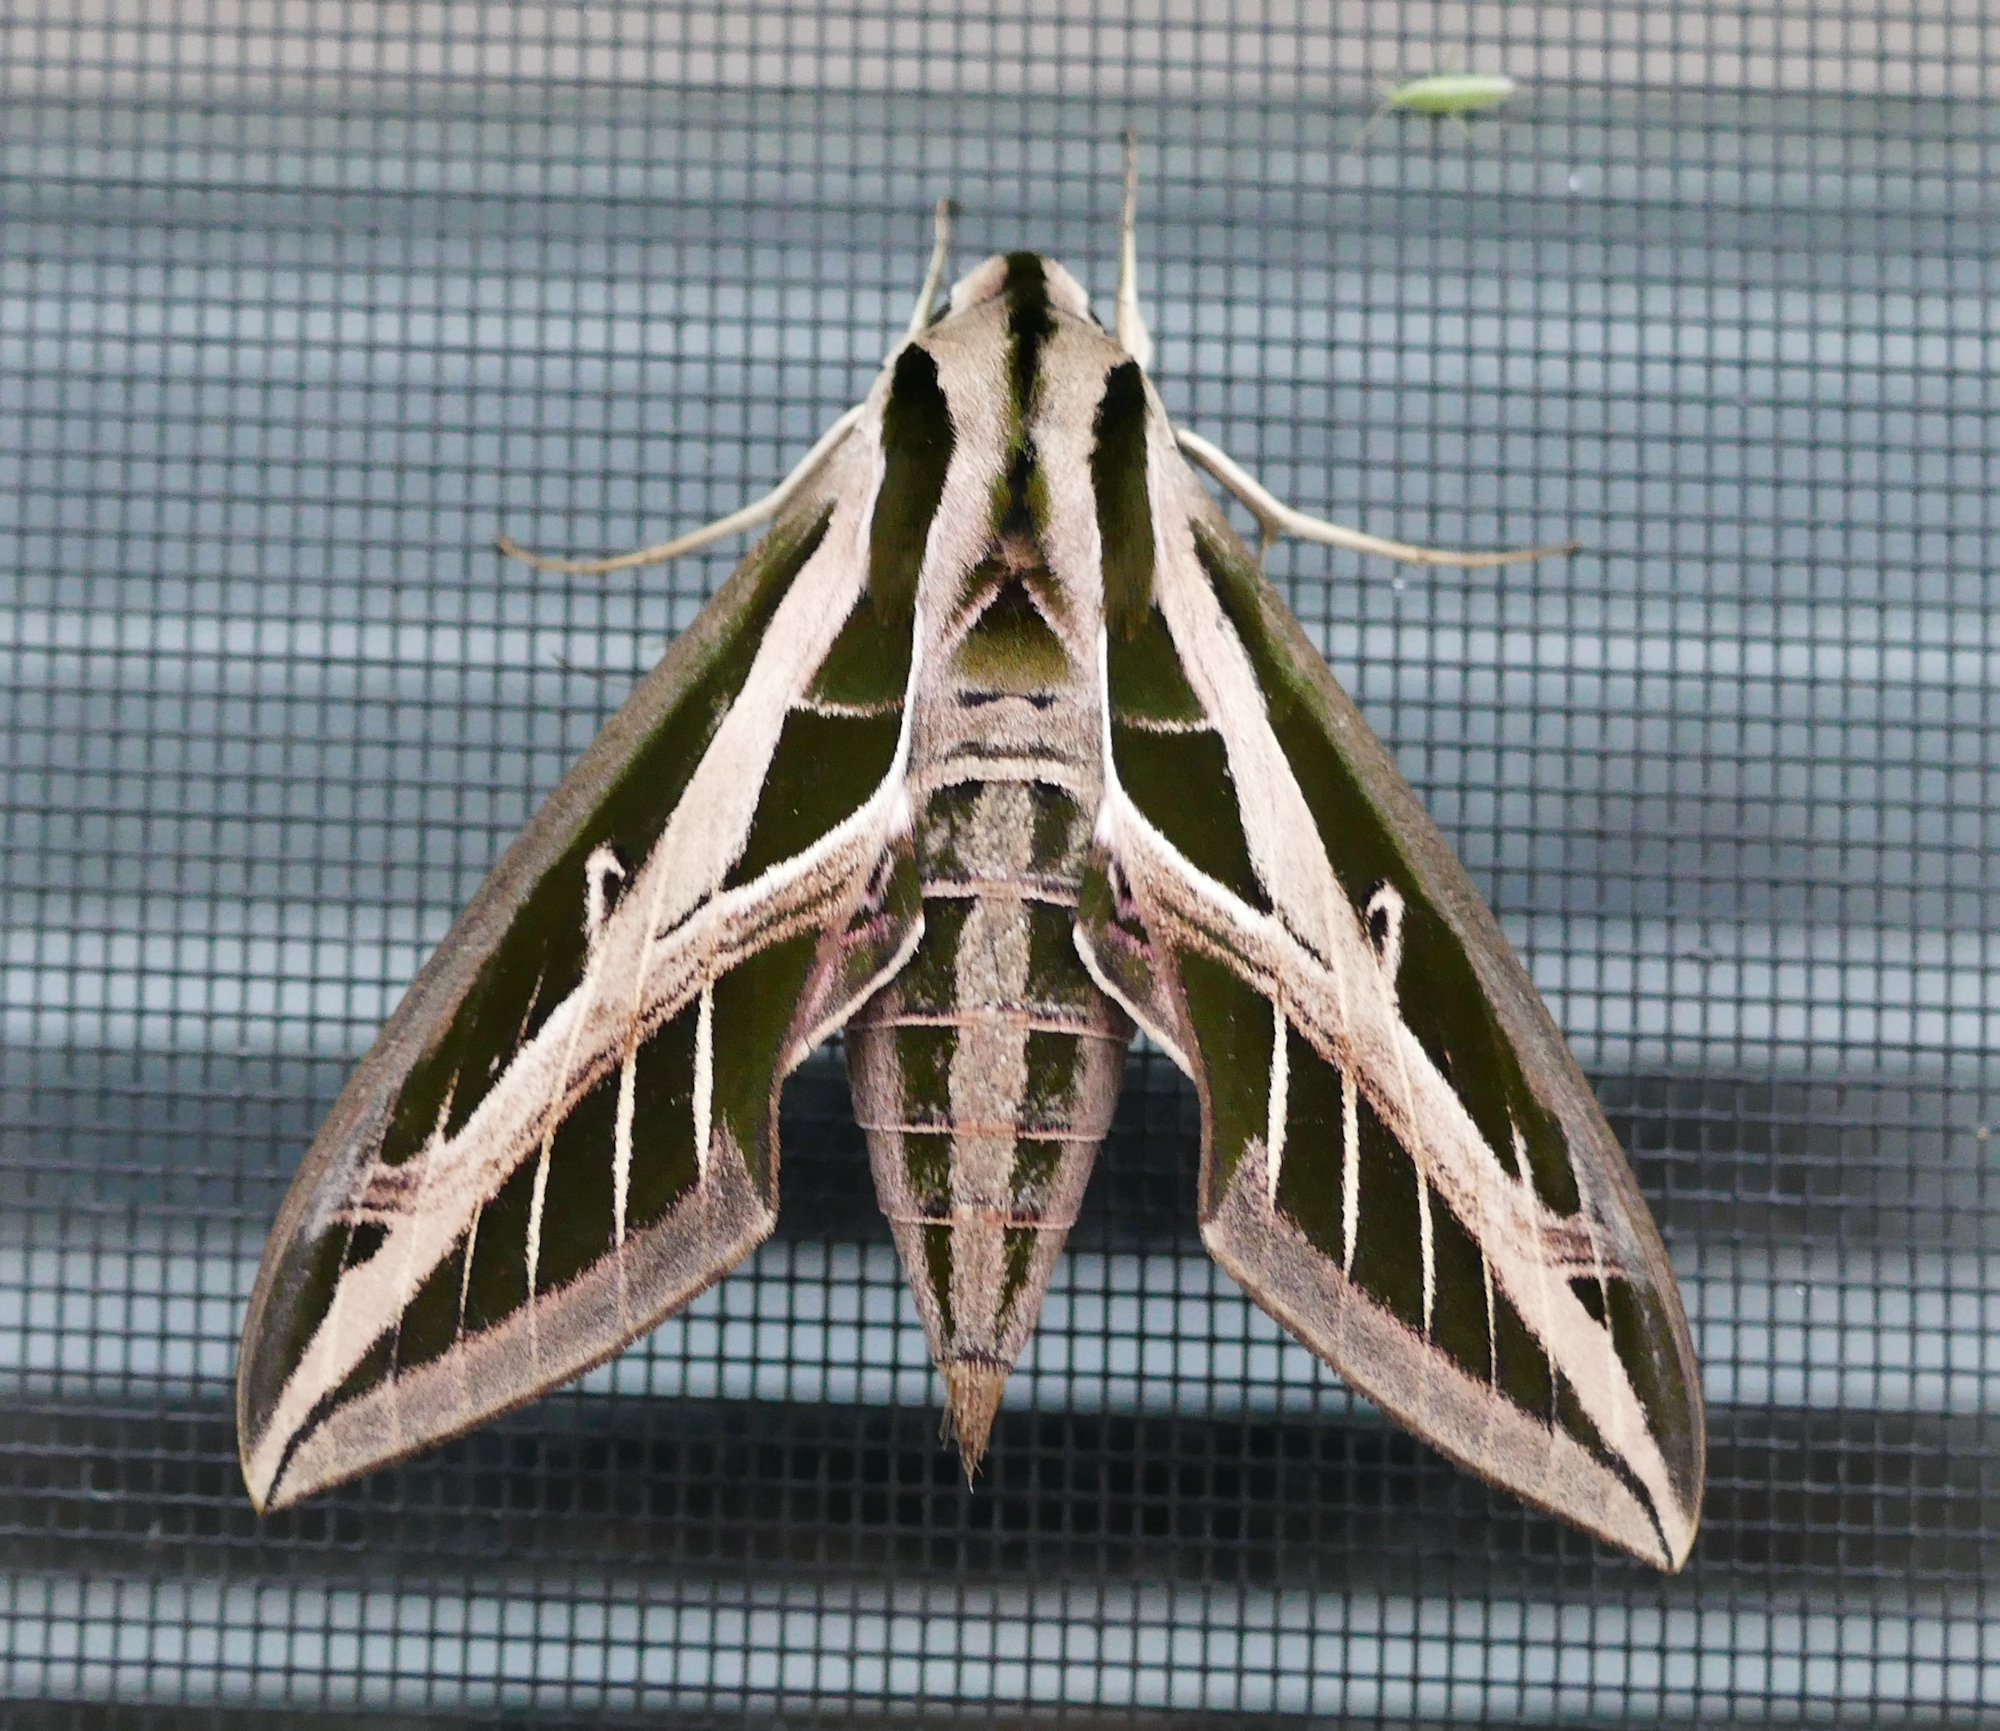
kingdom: Animalia
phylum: Arthropoda
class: Insecta
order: Lepidoptera
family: Sphingidae
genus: Eumorpha
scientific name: Eumorpha fasciatus
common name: Banded sphinx
